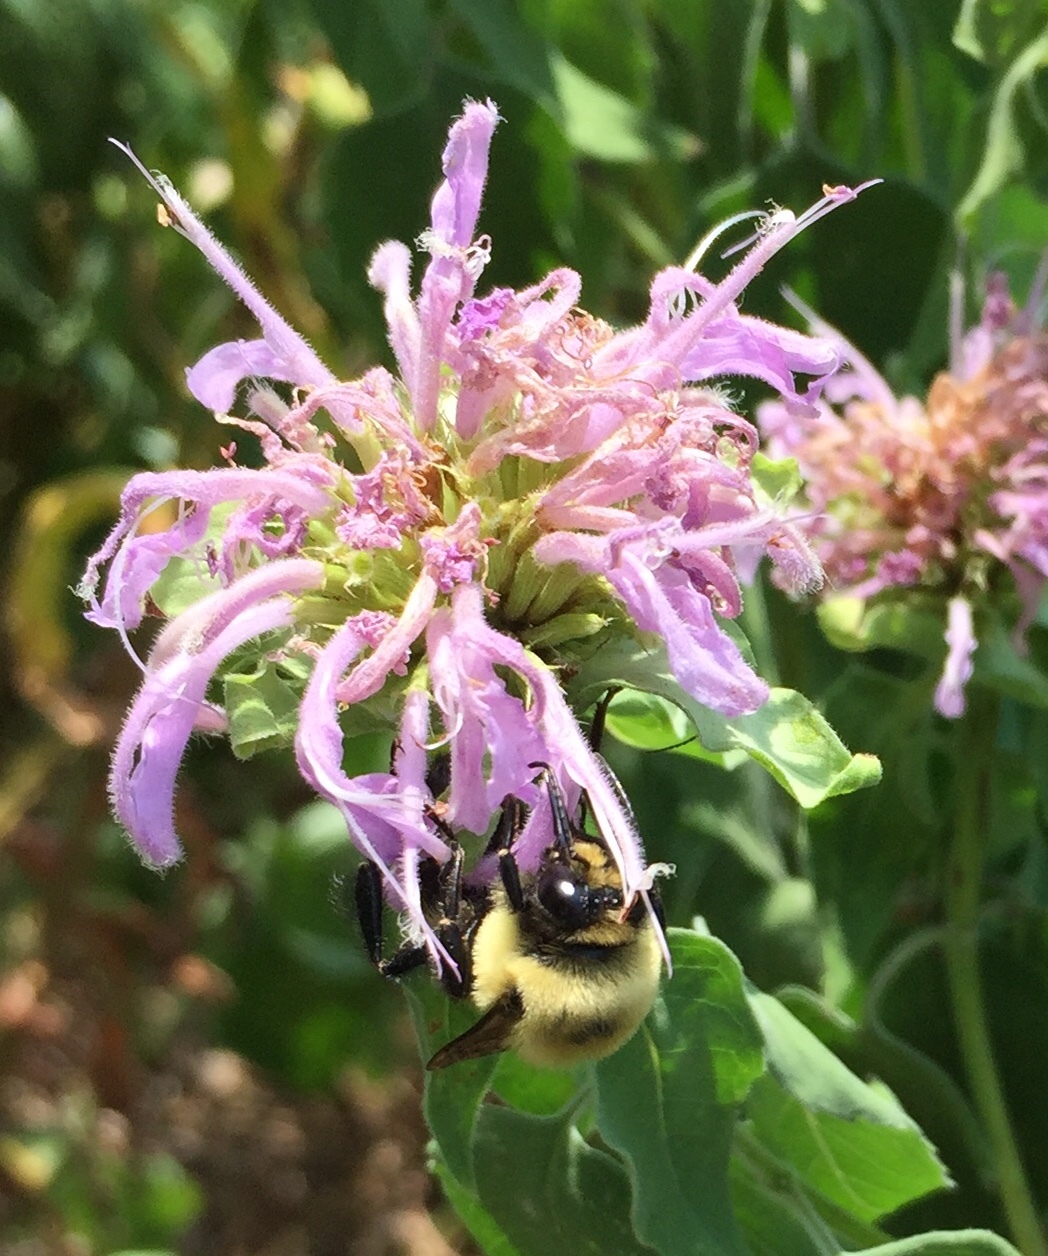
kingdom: Animalia
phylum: Arthropoda
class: Insecta
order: Hymenoptera
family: Apidae
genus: Bombus
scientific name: Bombus griseocollis
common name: Brown-belted bumble bee
